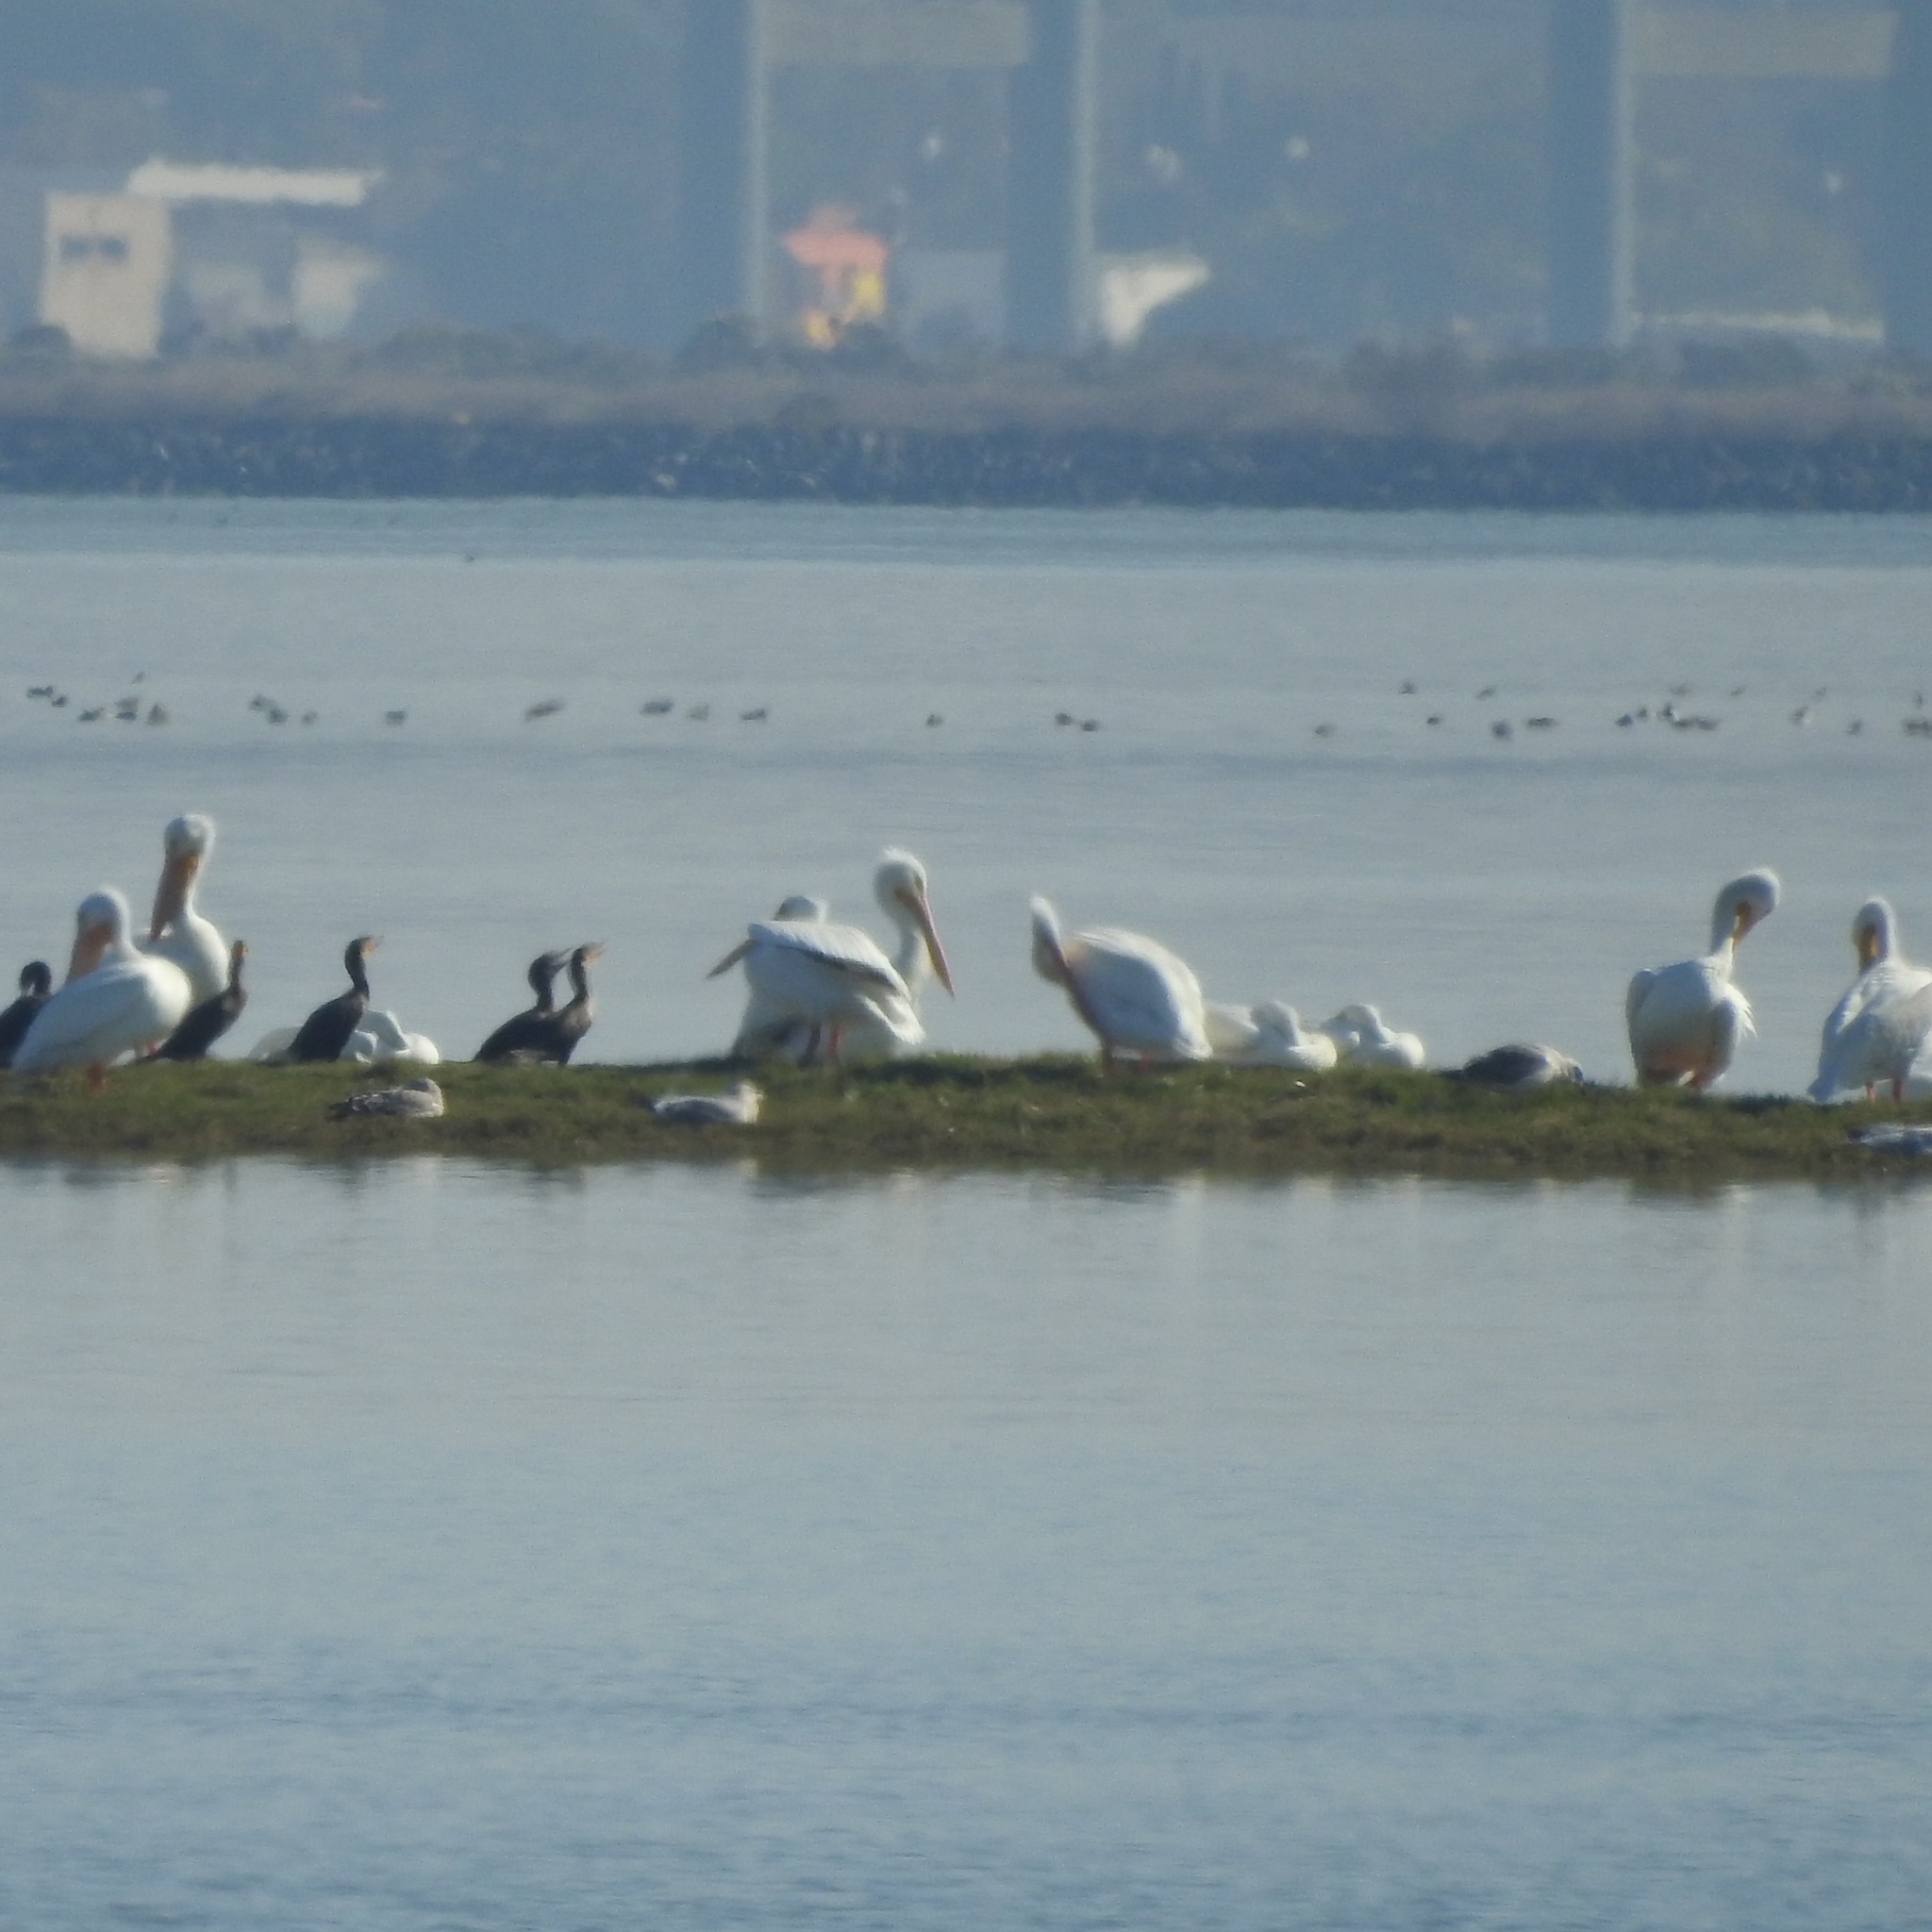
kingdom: Animalia
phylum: Chordata
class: Aves
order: Pelecaniformes
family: Pelecanidae
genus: Pelecanus
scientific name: Pelecanus erythrorhynchos
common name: American white pelican
